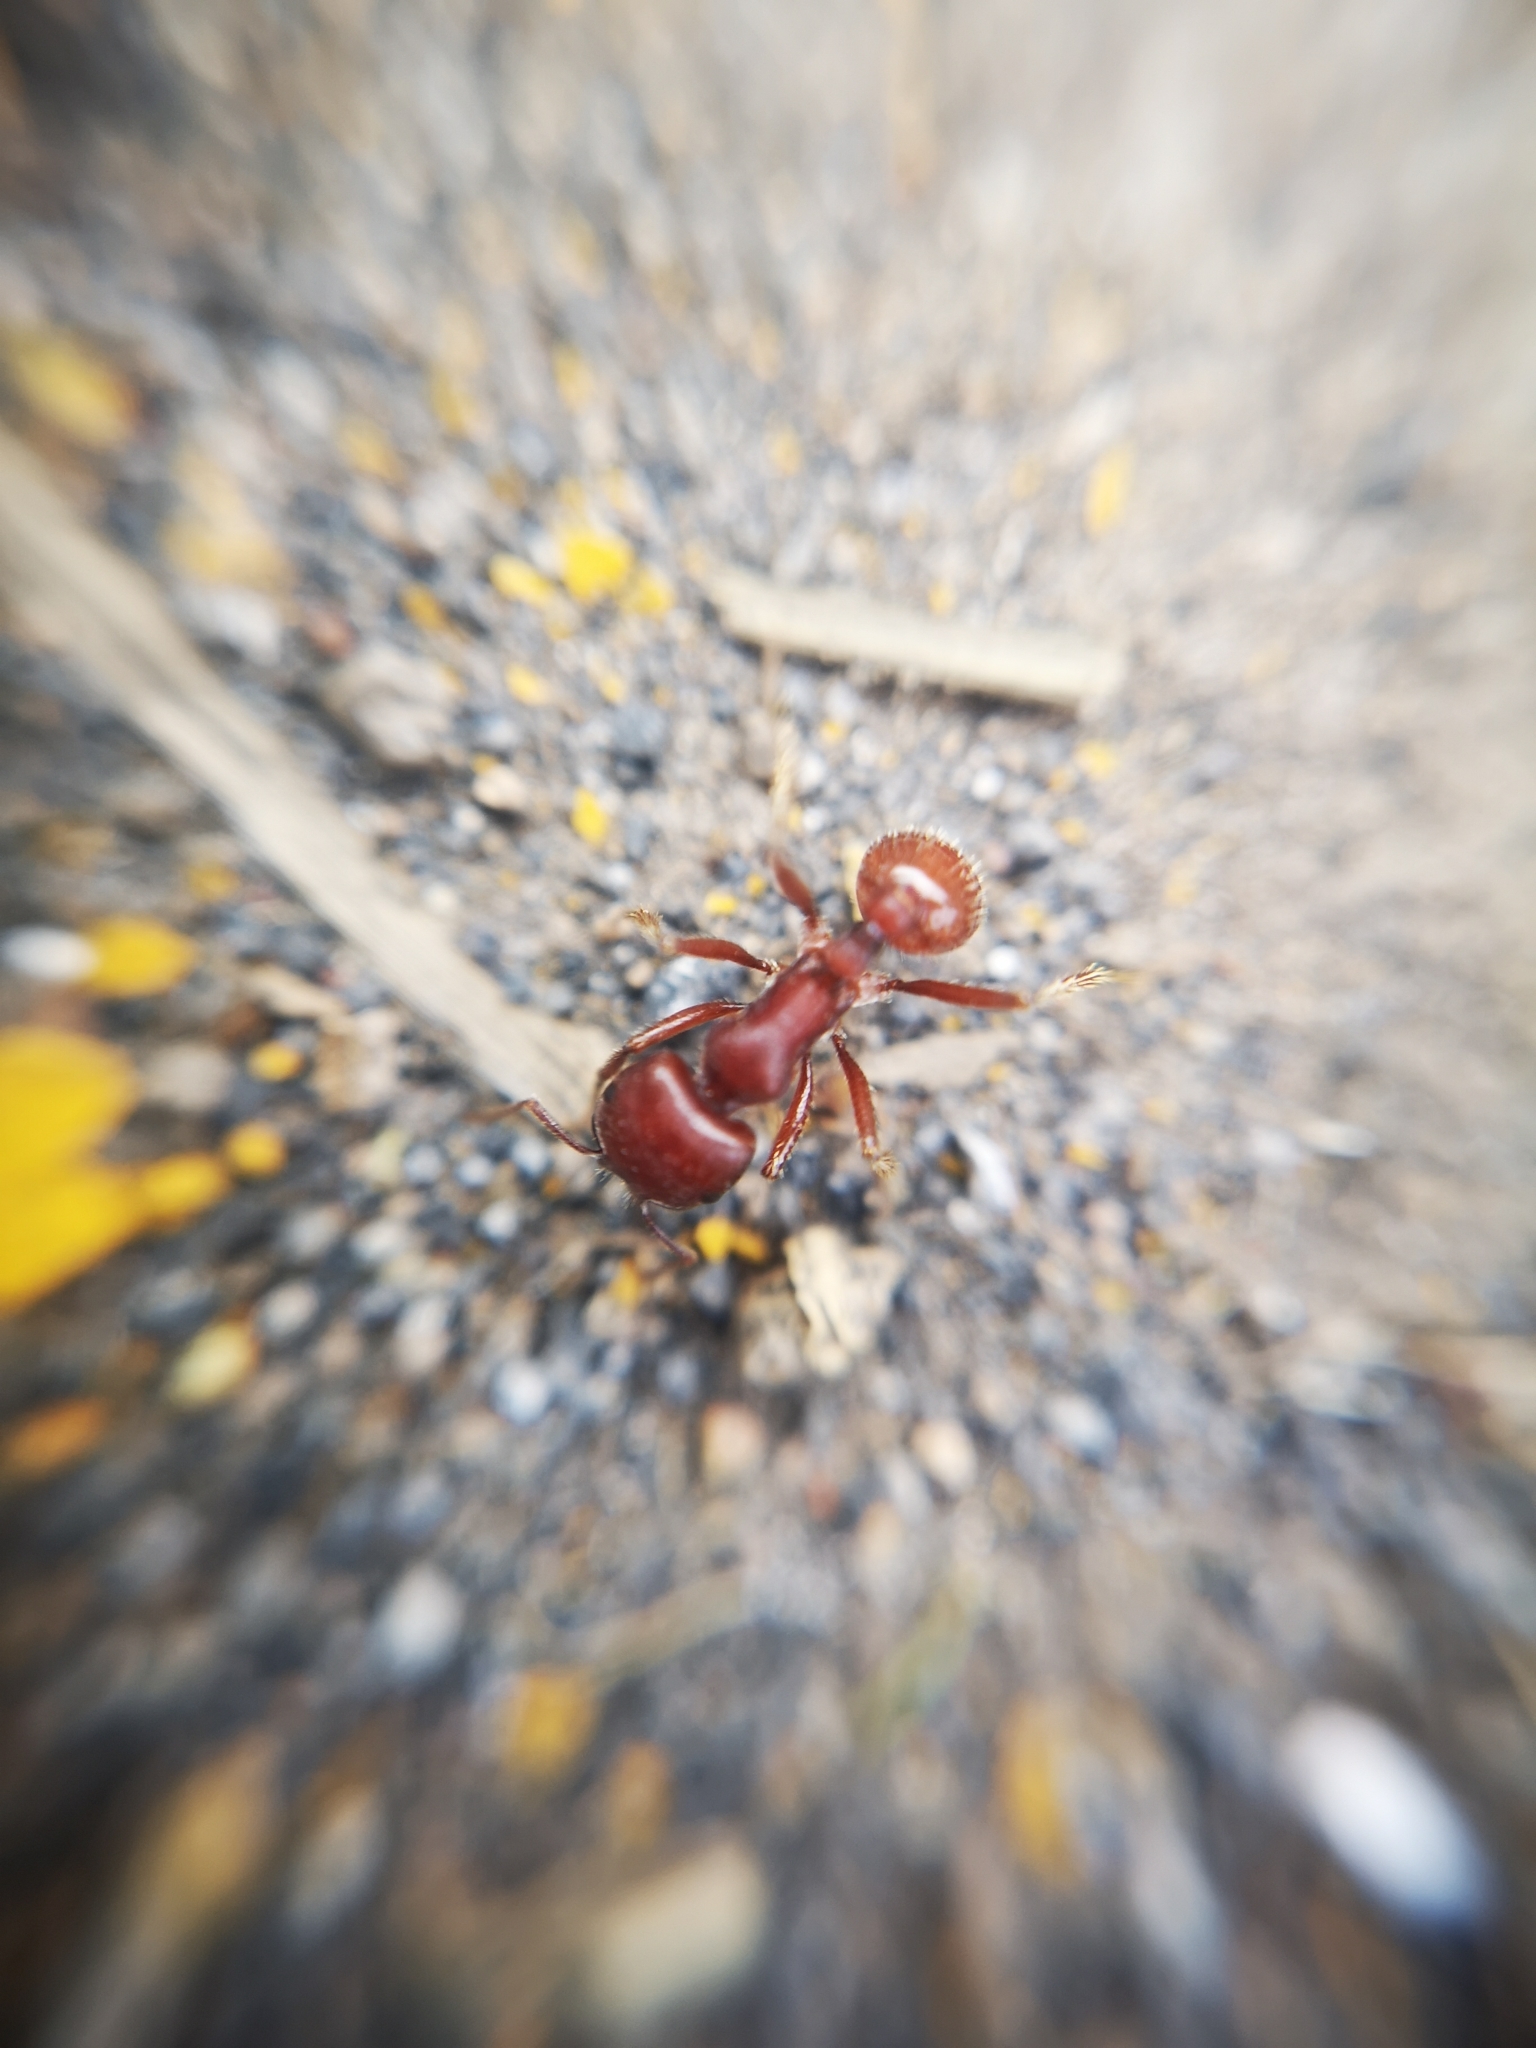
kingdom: Animalia
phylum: Arthropoda
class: Insecta
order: Hymenoptera
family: Formicidae
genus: Pogonomyrmex
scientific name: Pogonomyrmex barbatus
